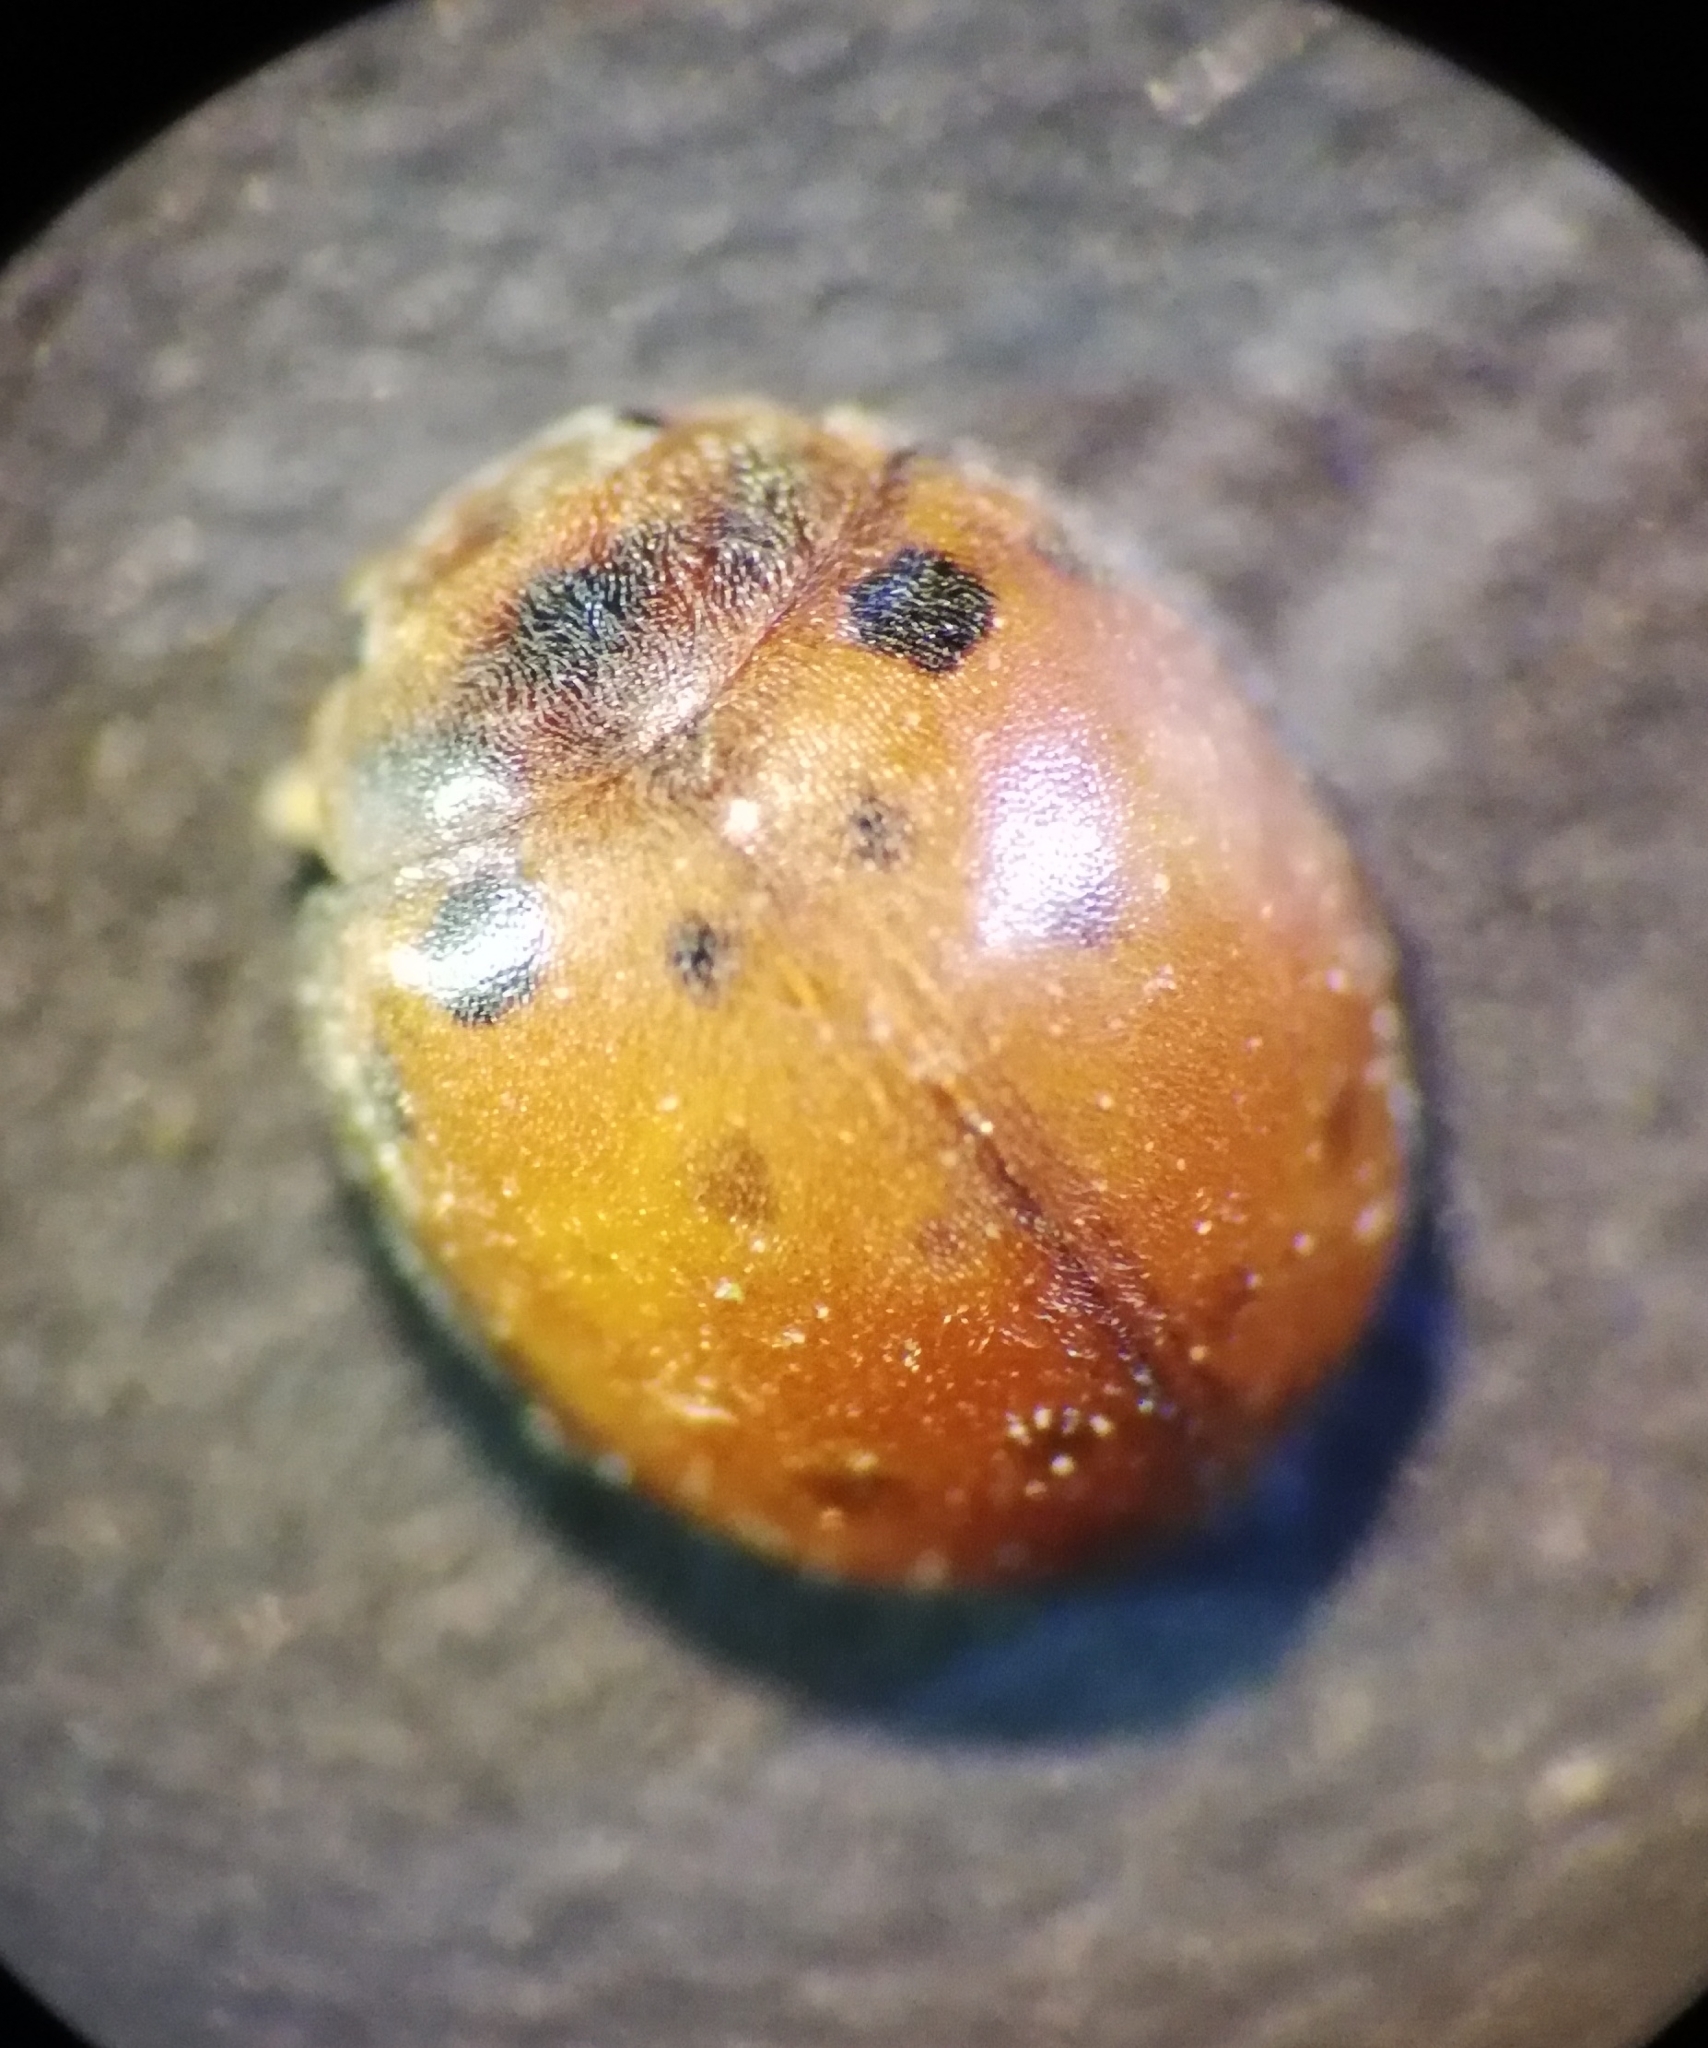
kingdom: Animalia
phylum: Arthropoda
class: Insecta
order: Coleoptera
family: Coccinellidae
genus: Subcoccinella
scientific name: Subcoccinella vigintiquatuorpunctata
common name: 24-spot ladybird
